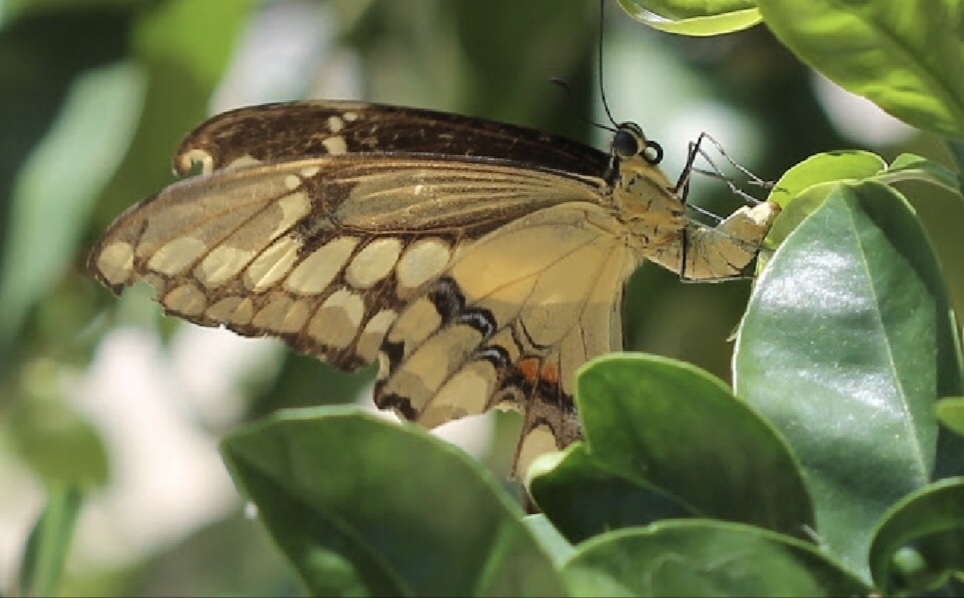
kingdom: Animalia
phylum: Arthropoda
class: Insecta
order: Lepidoptera
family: Papilionidae
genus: Papilio
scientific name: Papilio rumiko
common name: Western giant swallowtail
